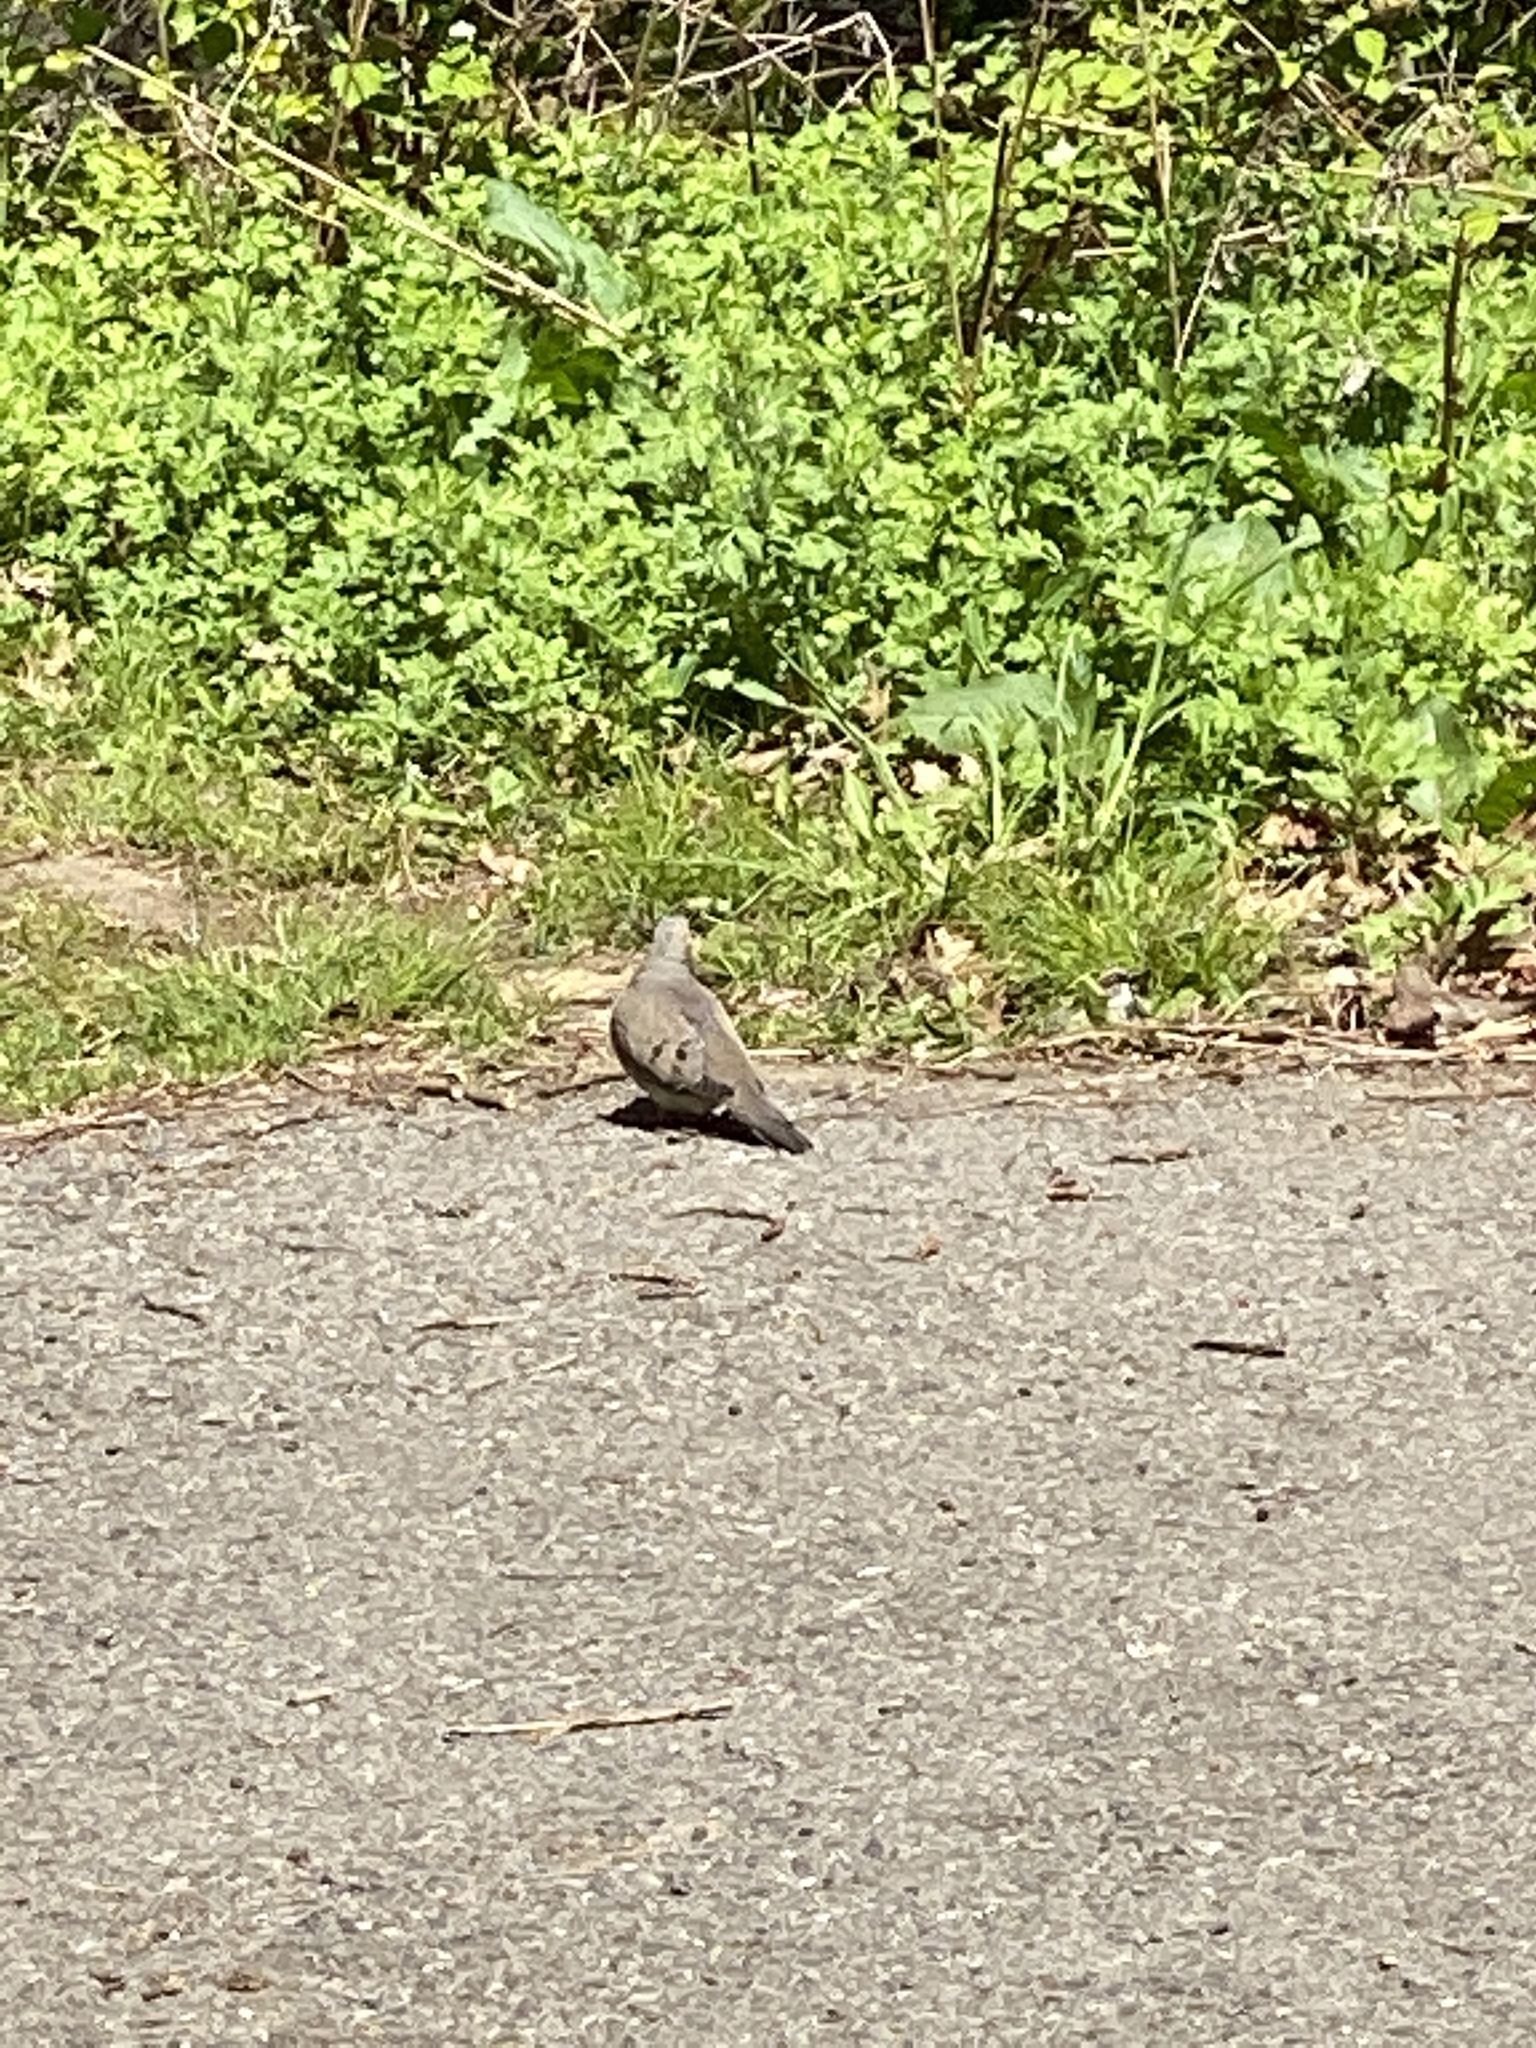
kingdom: Animalia
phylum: Chordata
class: Aves
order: Columbiformes
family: Columbidae
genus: Zenaida
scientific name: Zenaida macroura
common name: Mourning dove
